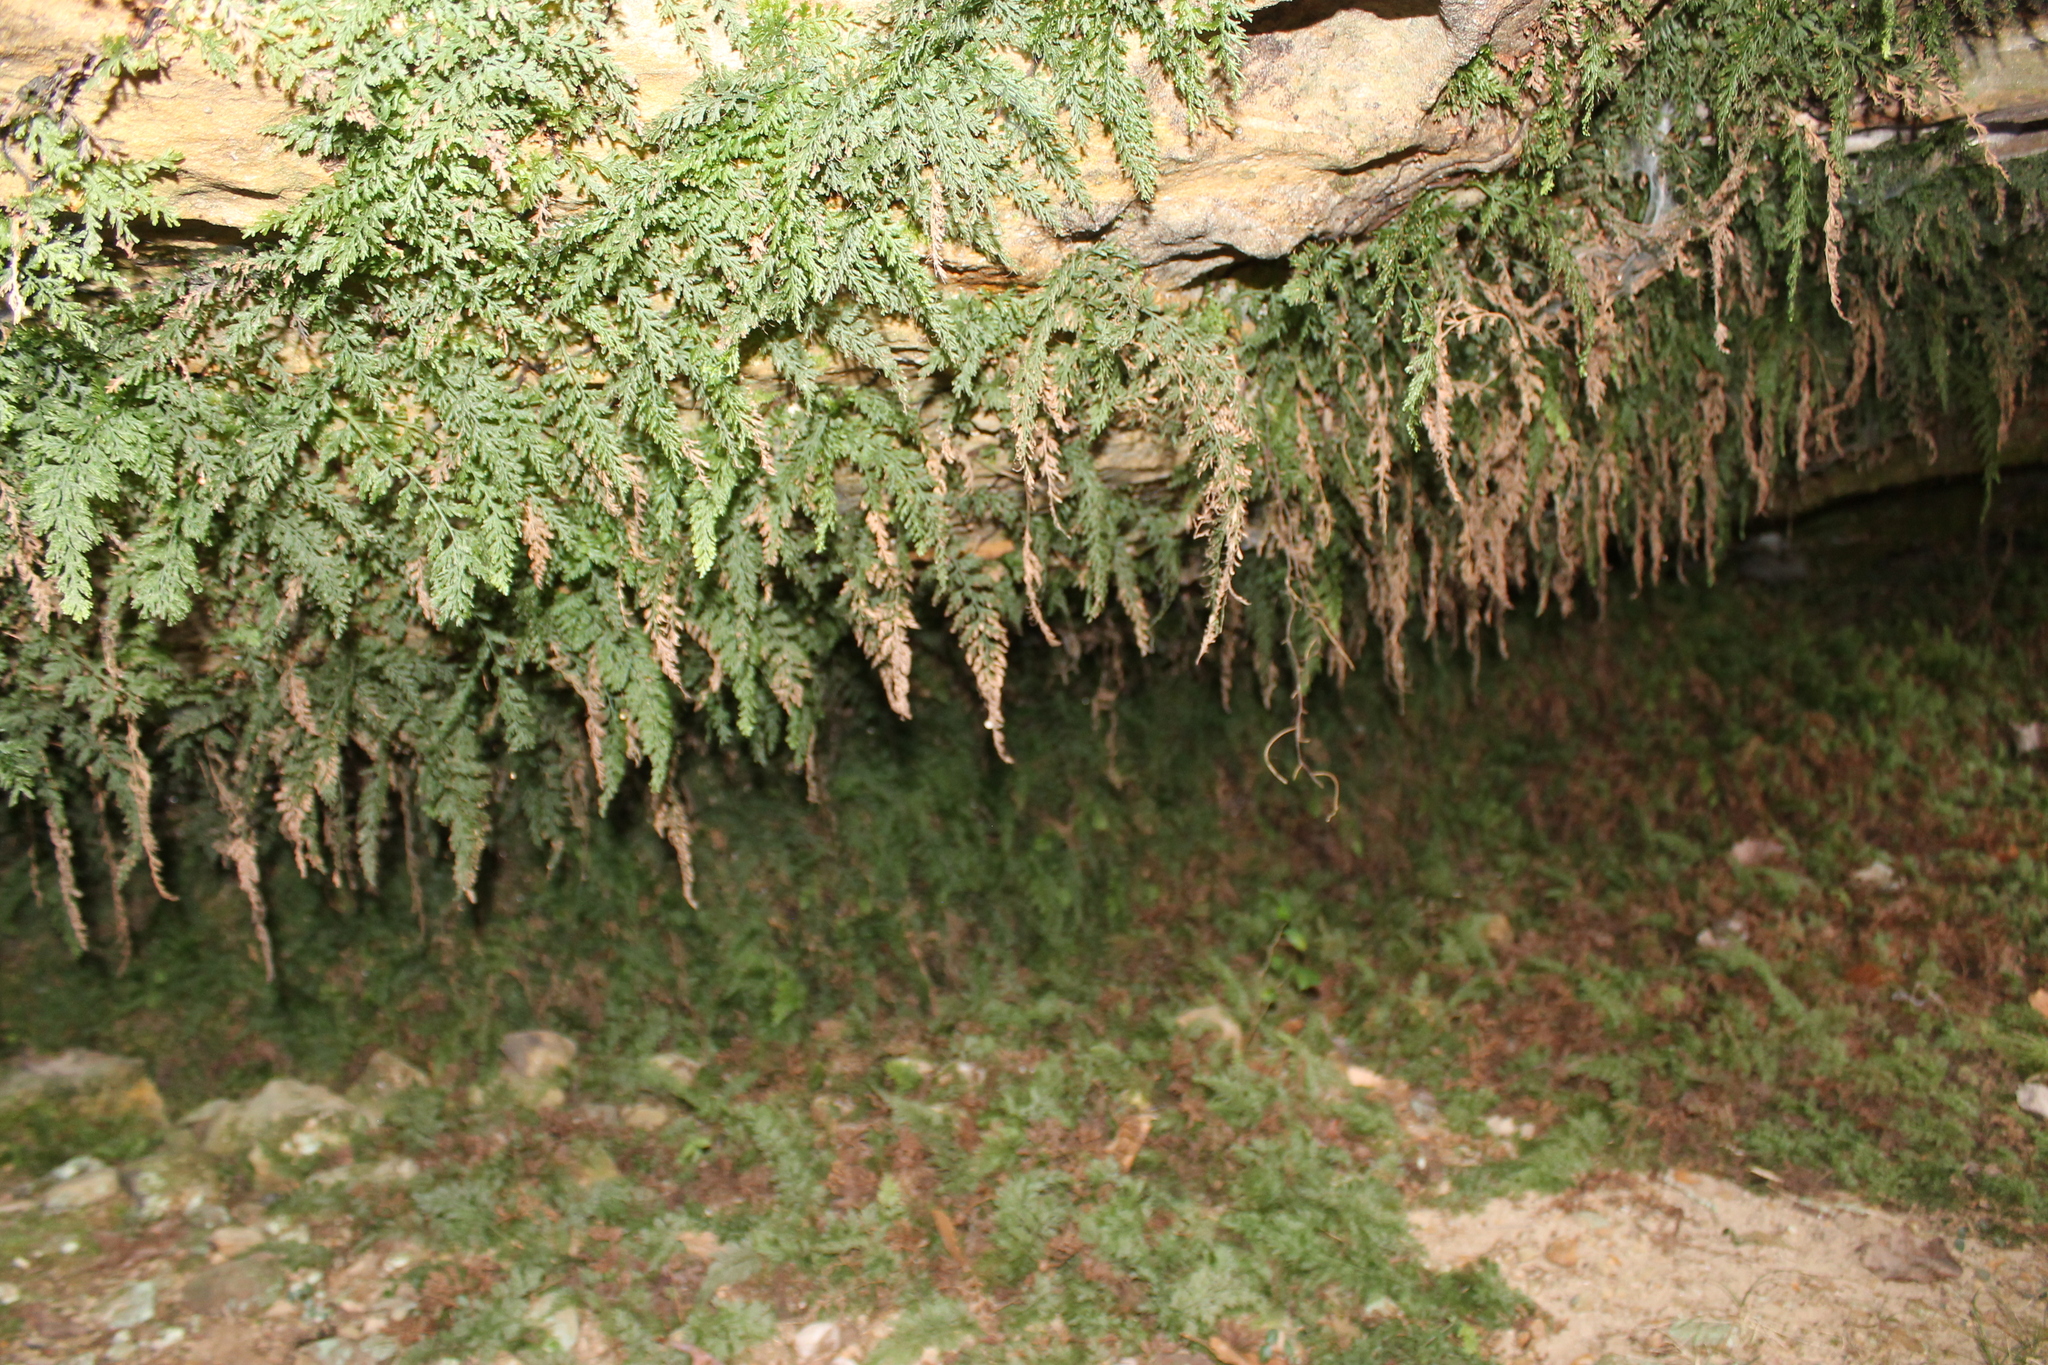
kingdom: Plantae
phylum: Tracheophyta
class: Polypodiopsida
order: Hymenophyllales
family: Hymenophyllaceae
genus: Vandenboschia
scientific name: Vandenboschia boschiana
